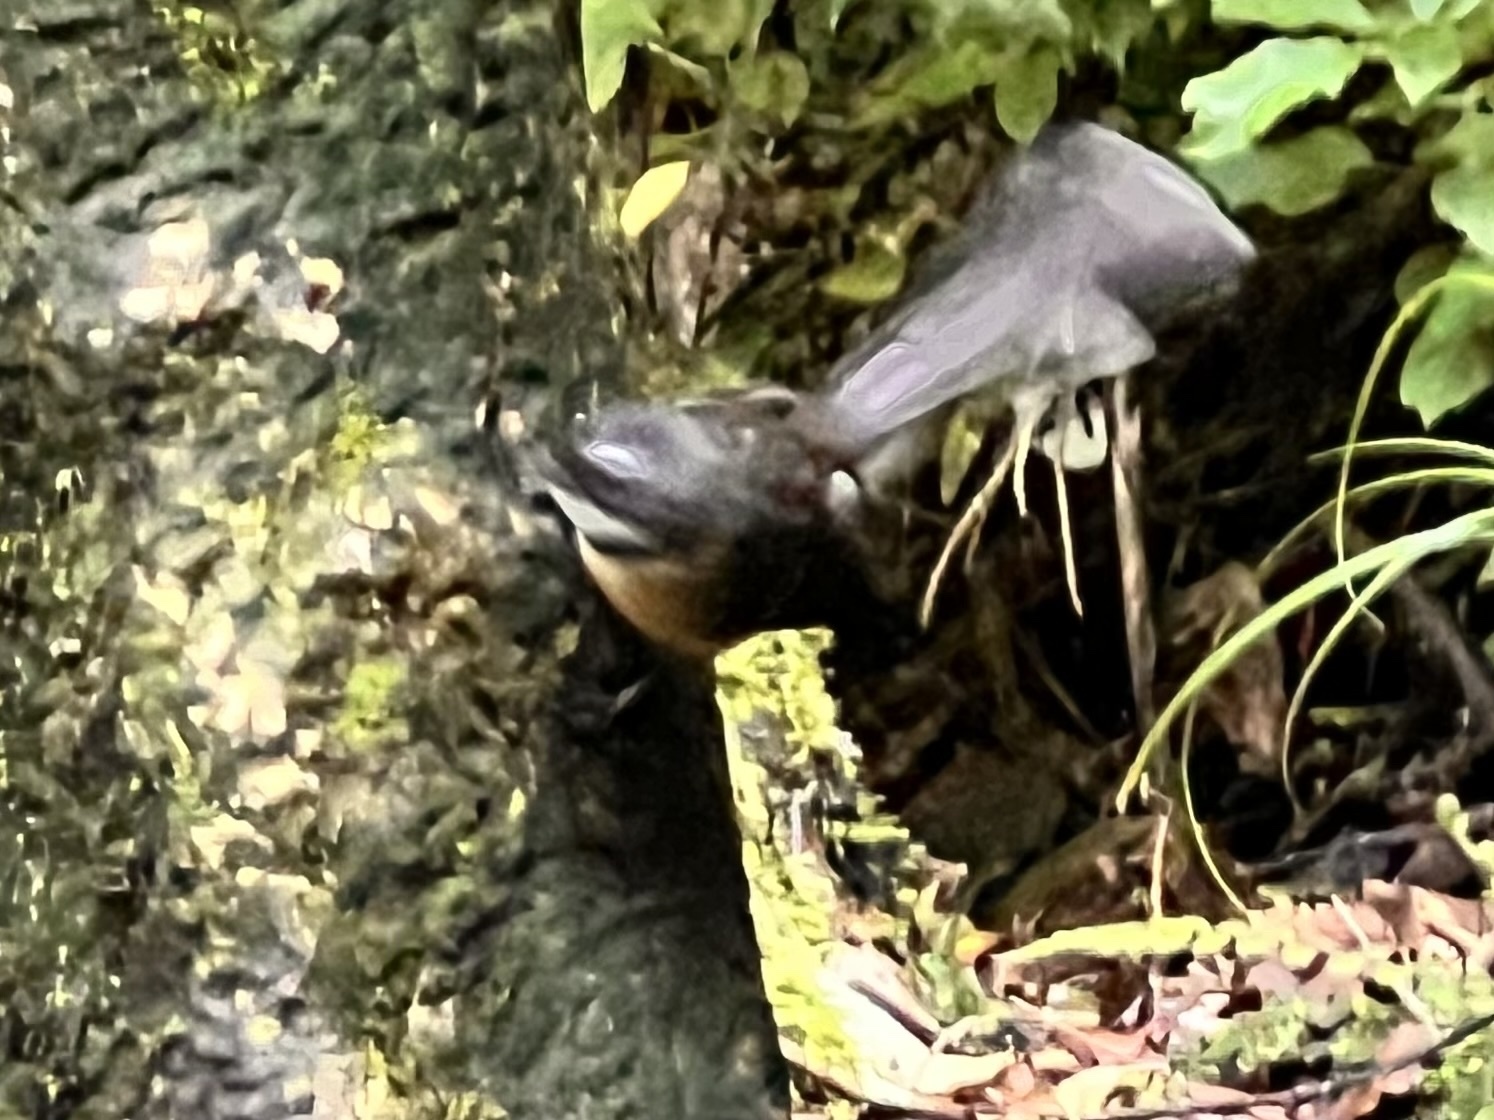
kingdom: Animalia
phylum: Chordata
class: Aves
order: Passeriformes
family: Rhipiduridae
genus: Rhipidura
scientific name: Rhipidura fuliginosa
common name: New zealand fantail
